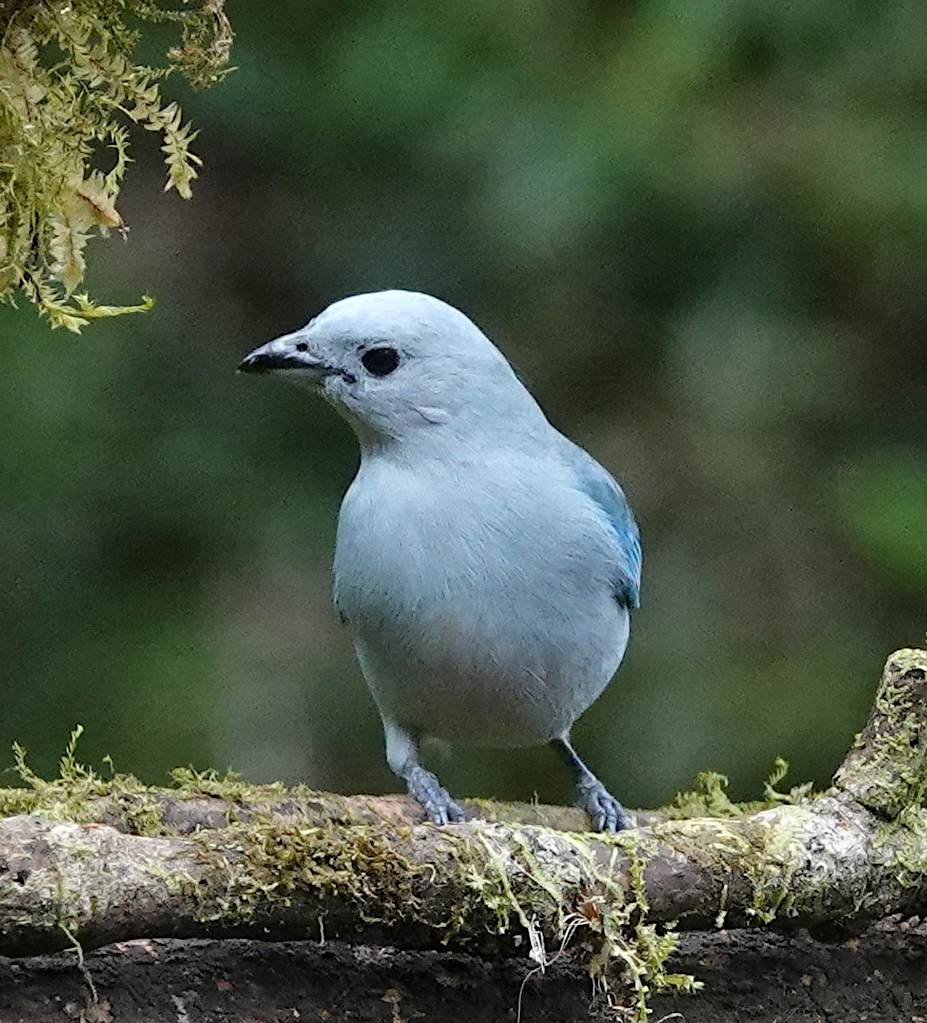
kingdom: Animalia
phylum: Chordata
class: Aves
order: Passeriformes
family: Thraupidae
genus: Thraupis
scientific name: Thraupis episcopus
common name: Blue-grey tanager
